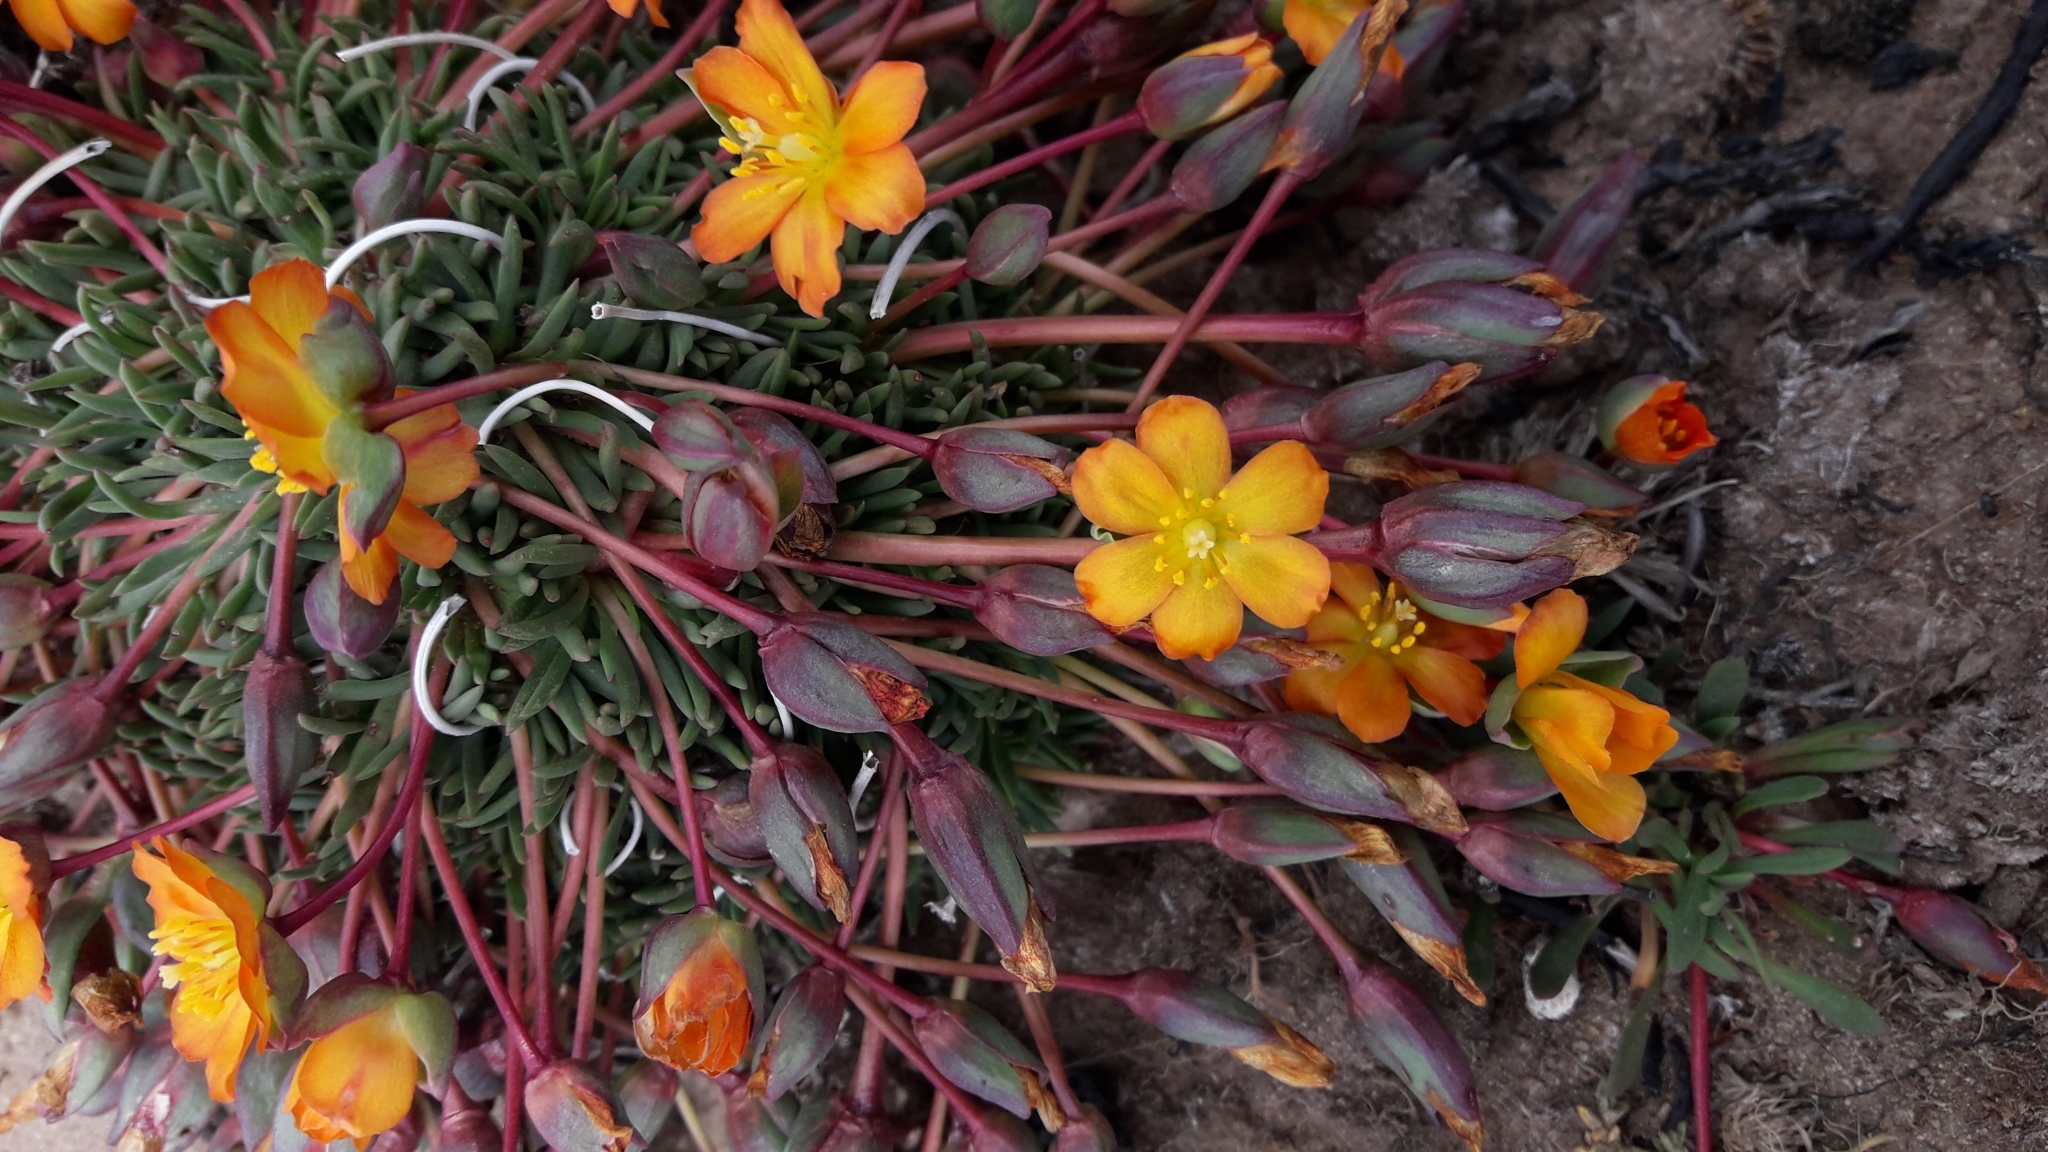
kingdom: Plantae
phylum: Tracheophyta
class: Magnoliopsida
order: Caryophyllales
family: Montiaceae
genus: Calandrinia
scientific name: Calandrinia caespitosa
